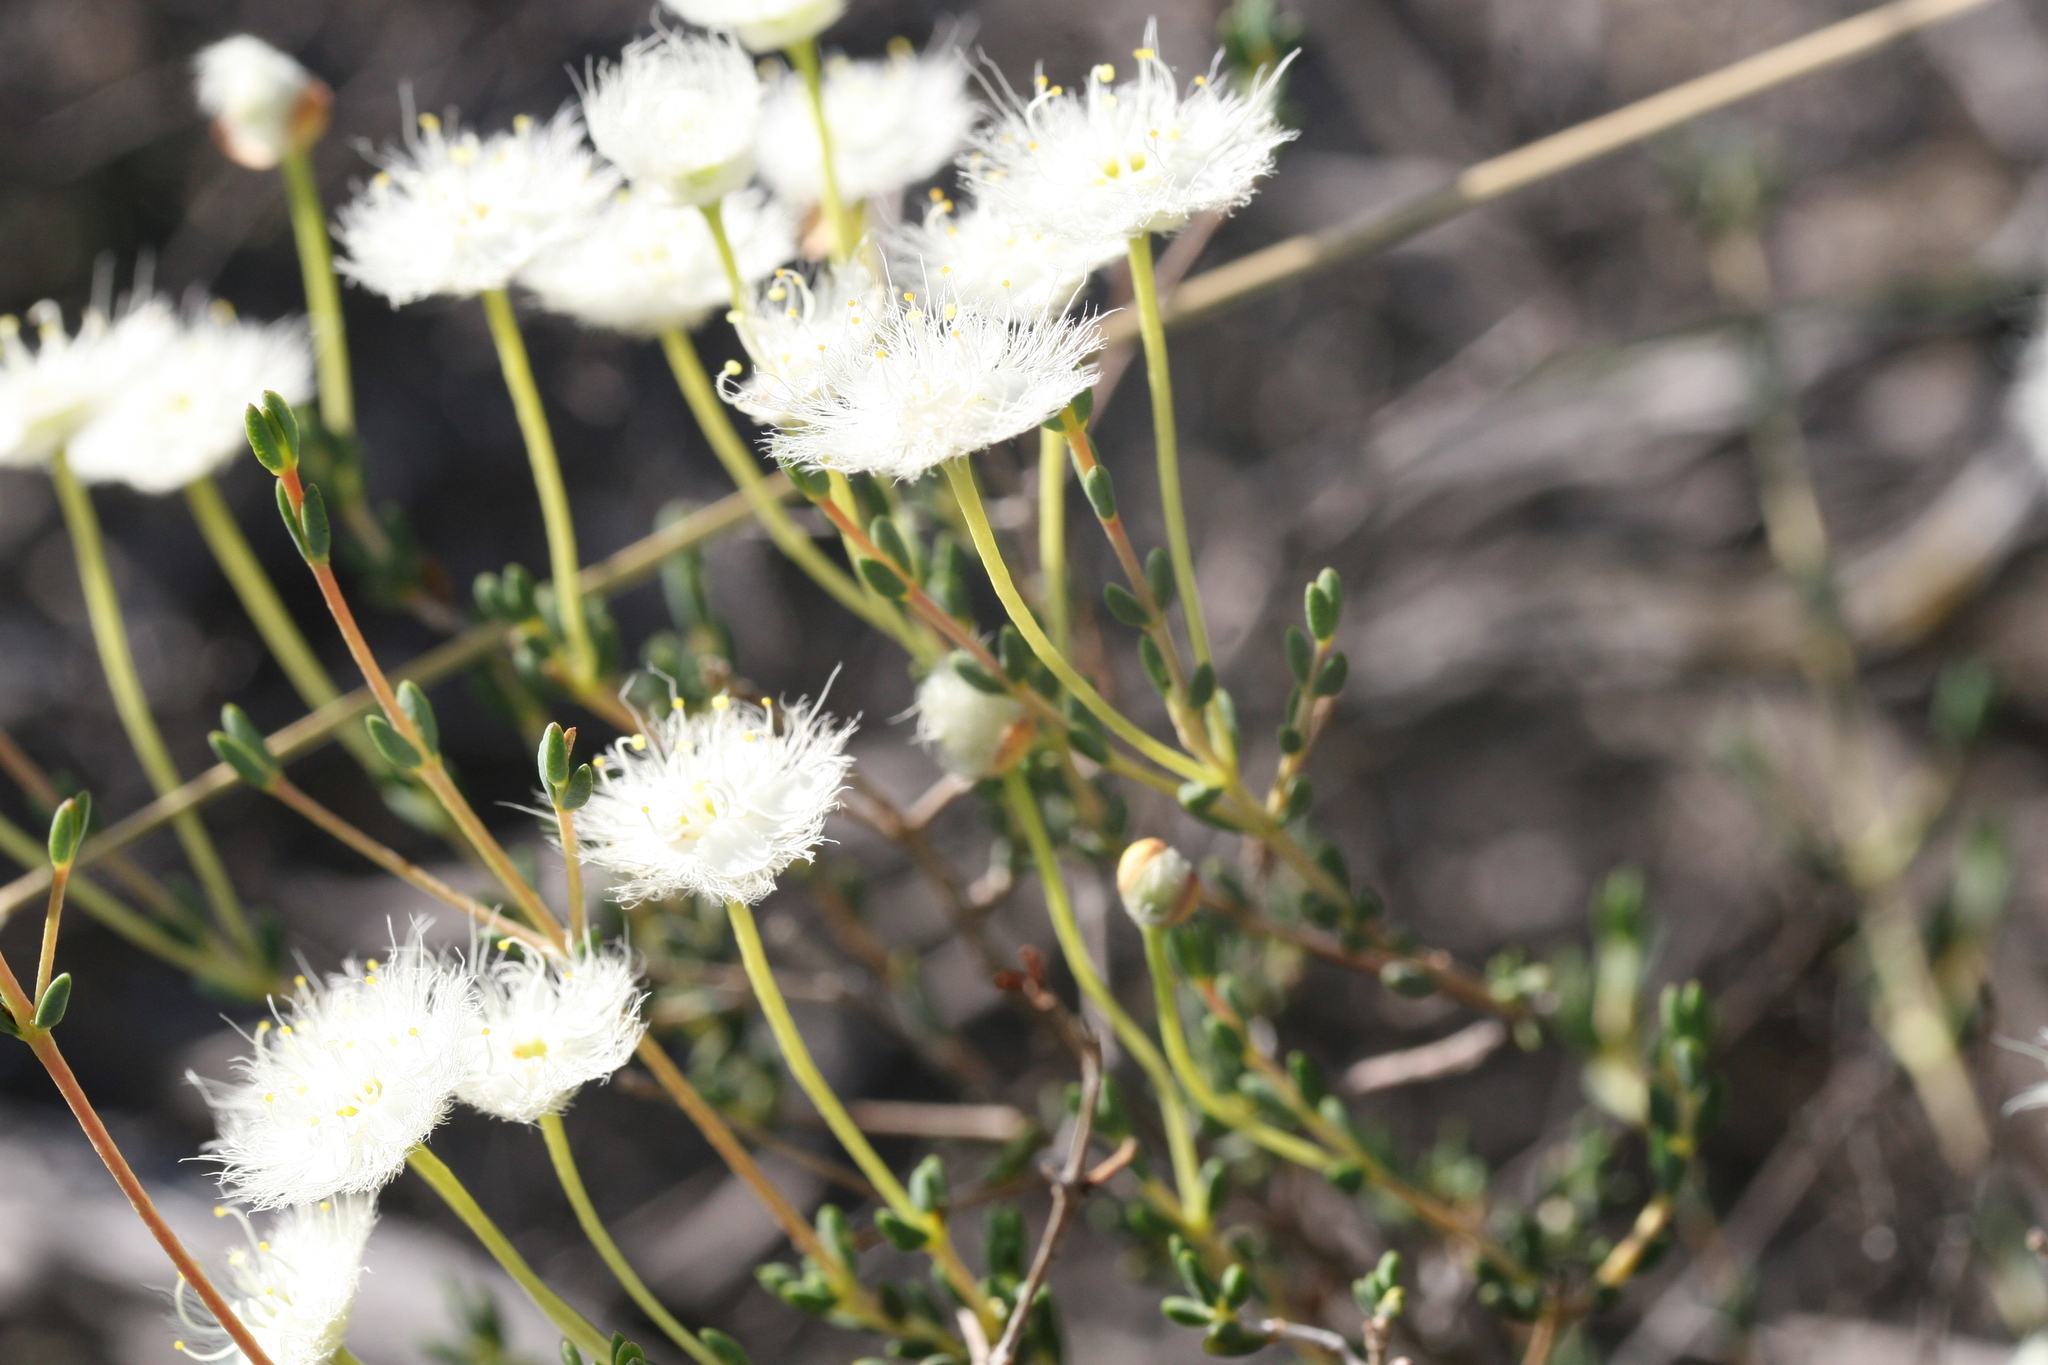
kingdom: Plantae
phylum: Tracheophyta
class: Magnoliopsida
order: Myrtales
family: Myrtaceae
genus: Verticordia
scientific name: Verticordia roei
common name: Roe's feather-flower
